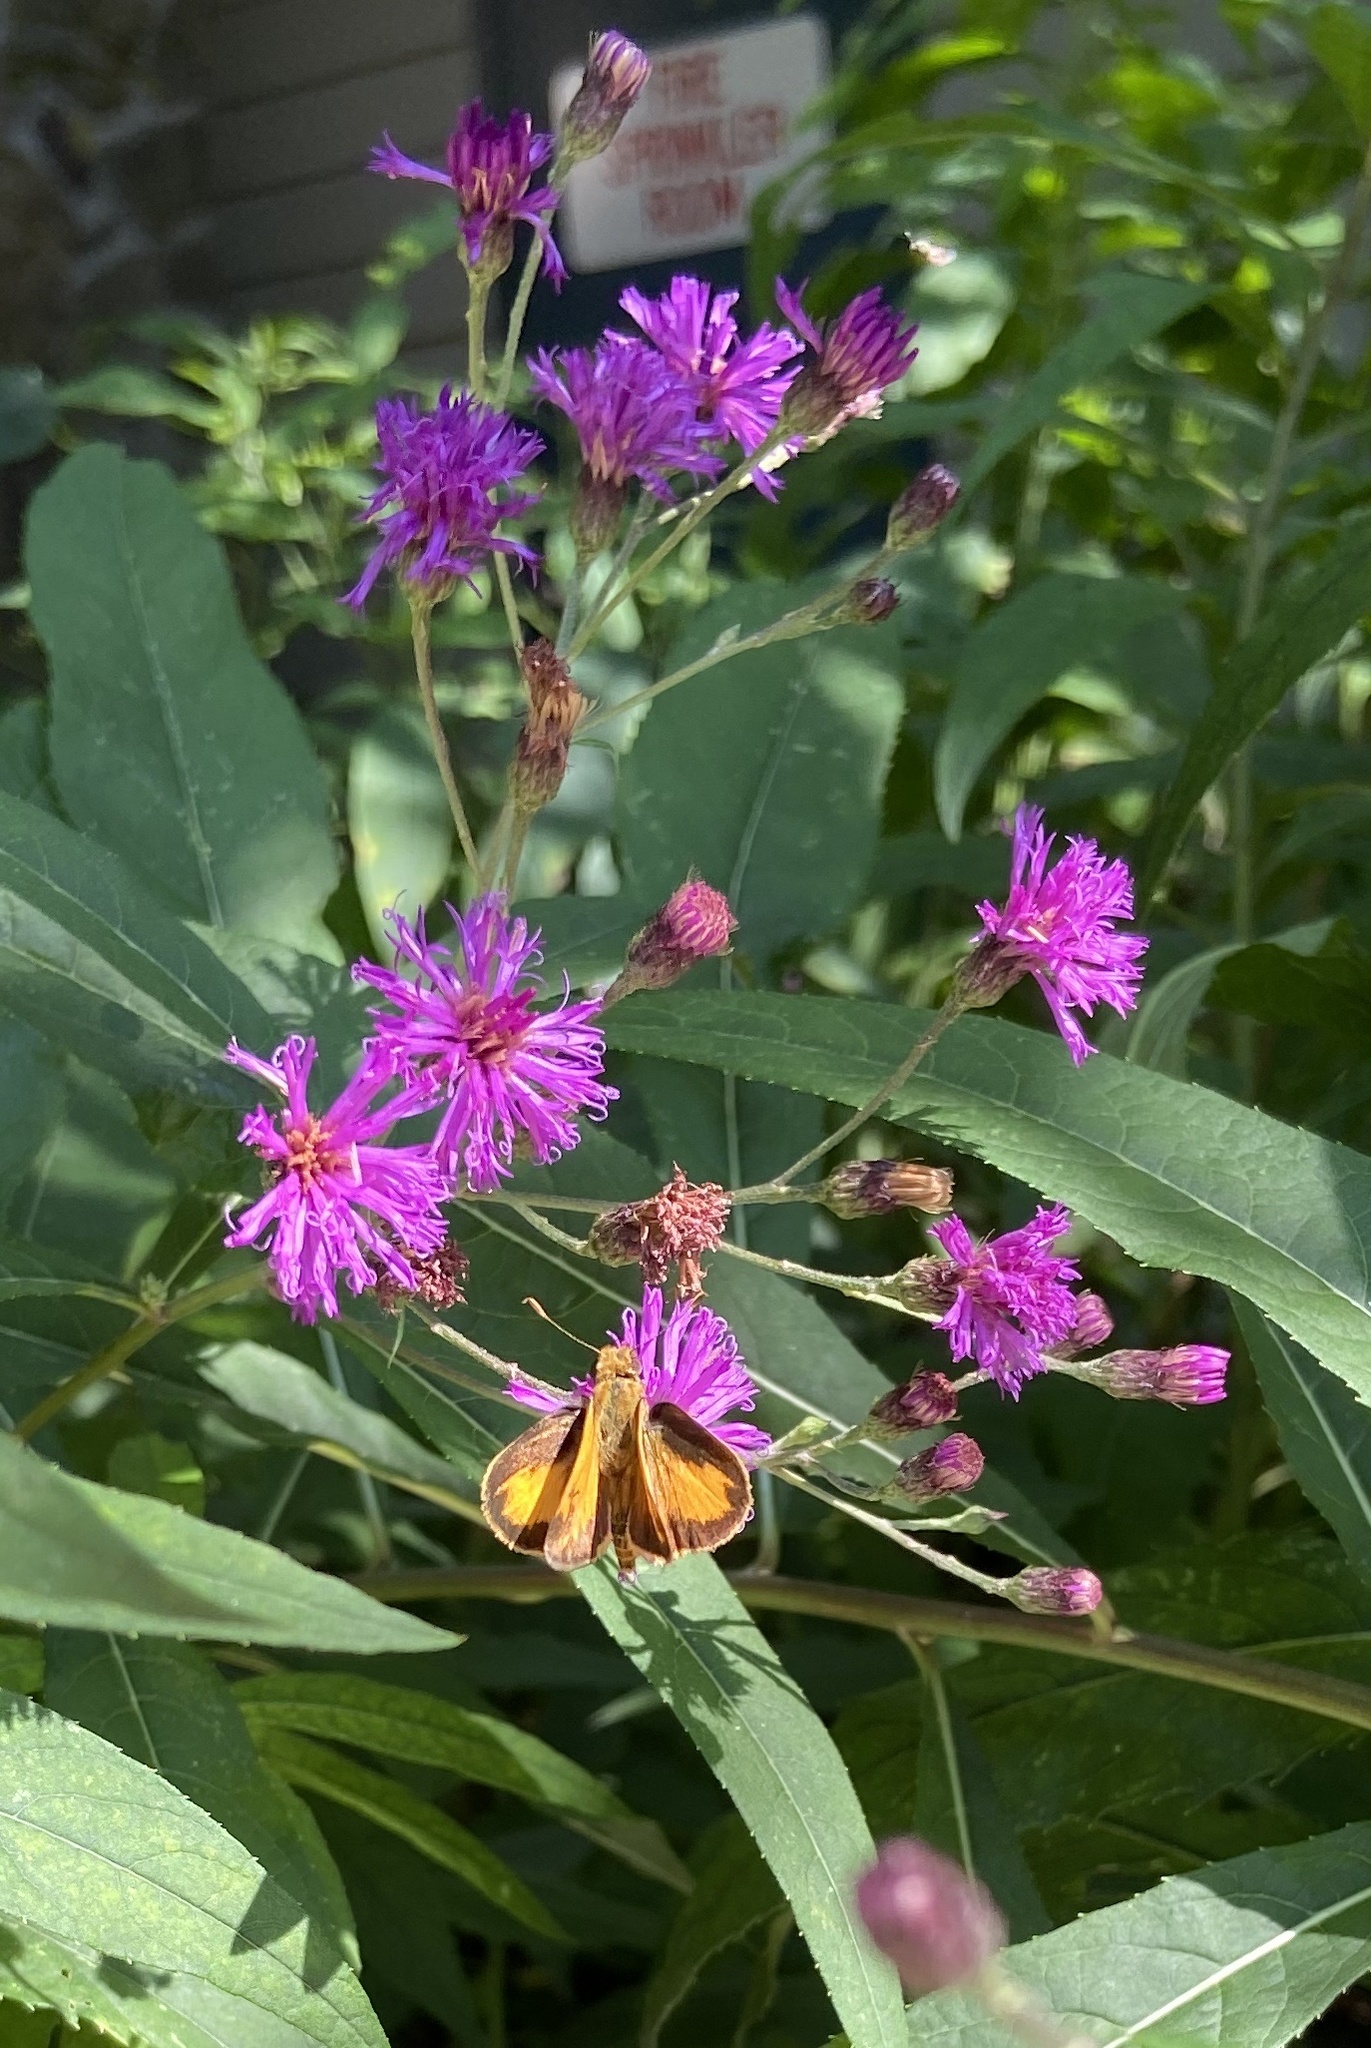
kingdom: Animalia
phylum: Arthropoda
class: Insecta
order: Lepidoptera
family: Hesperiidae
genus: Lon
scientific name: Lon zabulon
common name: Zabulon skipper
